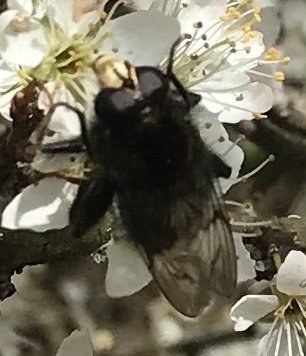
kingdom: Animalia
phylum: Arthropoda
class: Insecta
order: Diptera
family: Syrphidae
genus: Criorhina
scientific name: Criorhina ranunculi
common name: Large bear hoverfly
